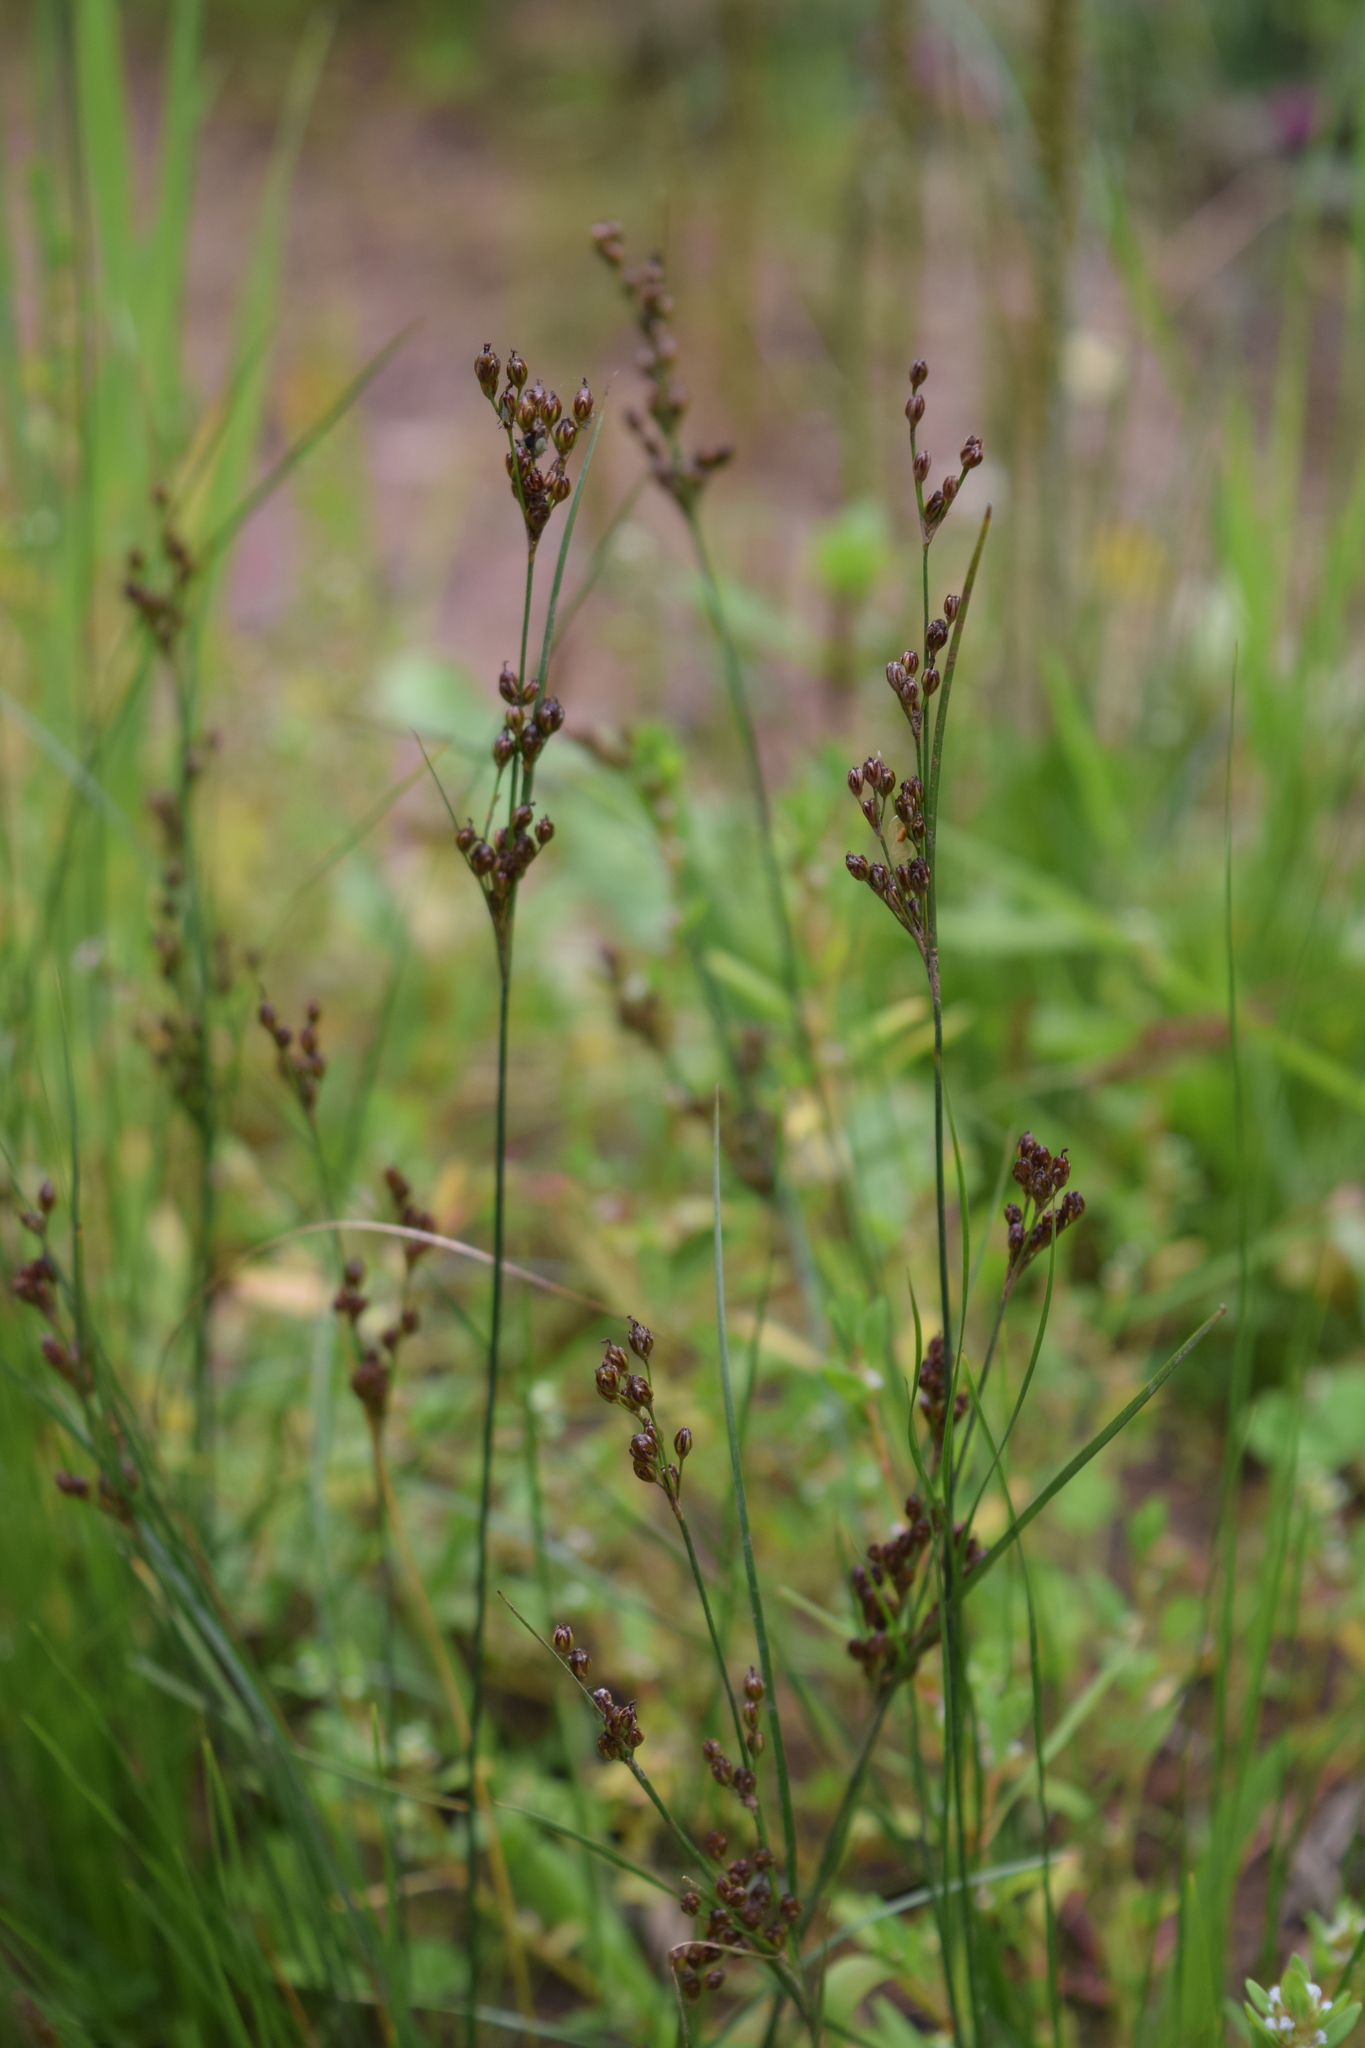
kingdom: Plantae
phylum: Tracheophyta
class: Liliopsida
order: Poales
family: Juncaceae
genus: Juncus
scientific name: Juncus compressus
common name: Round-fruited rush
